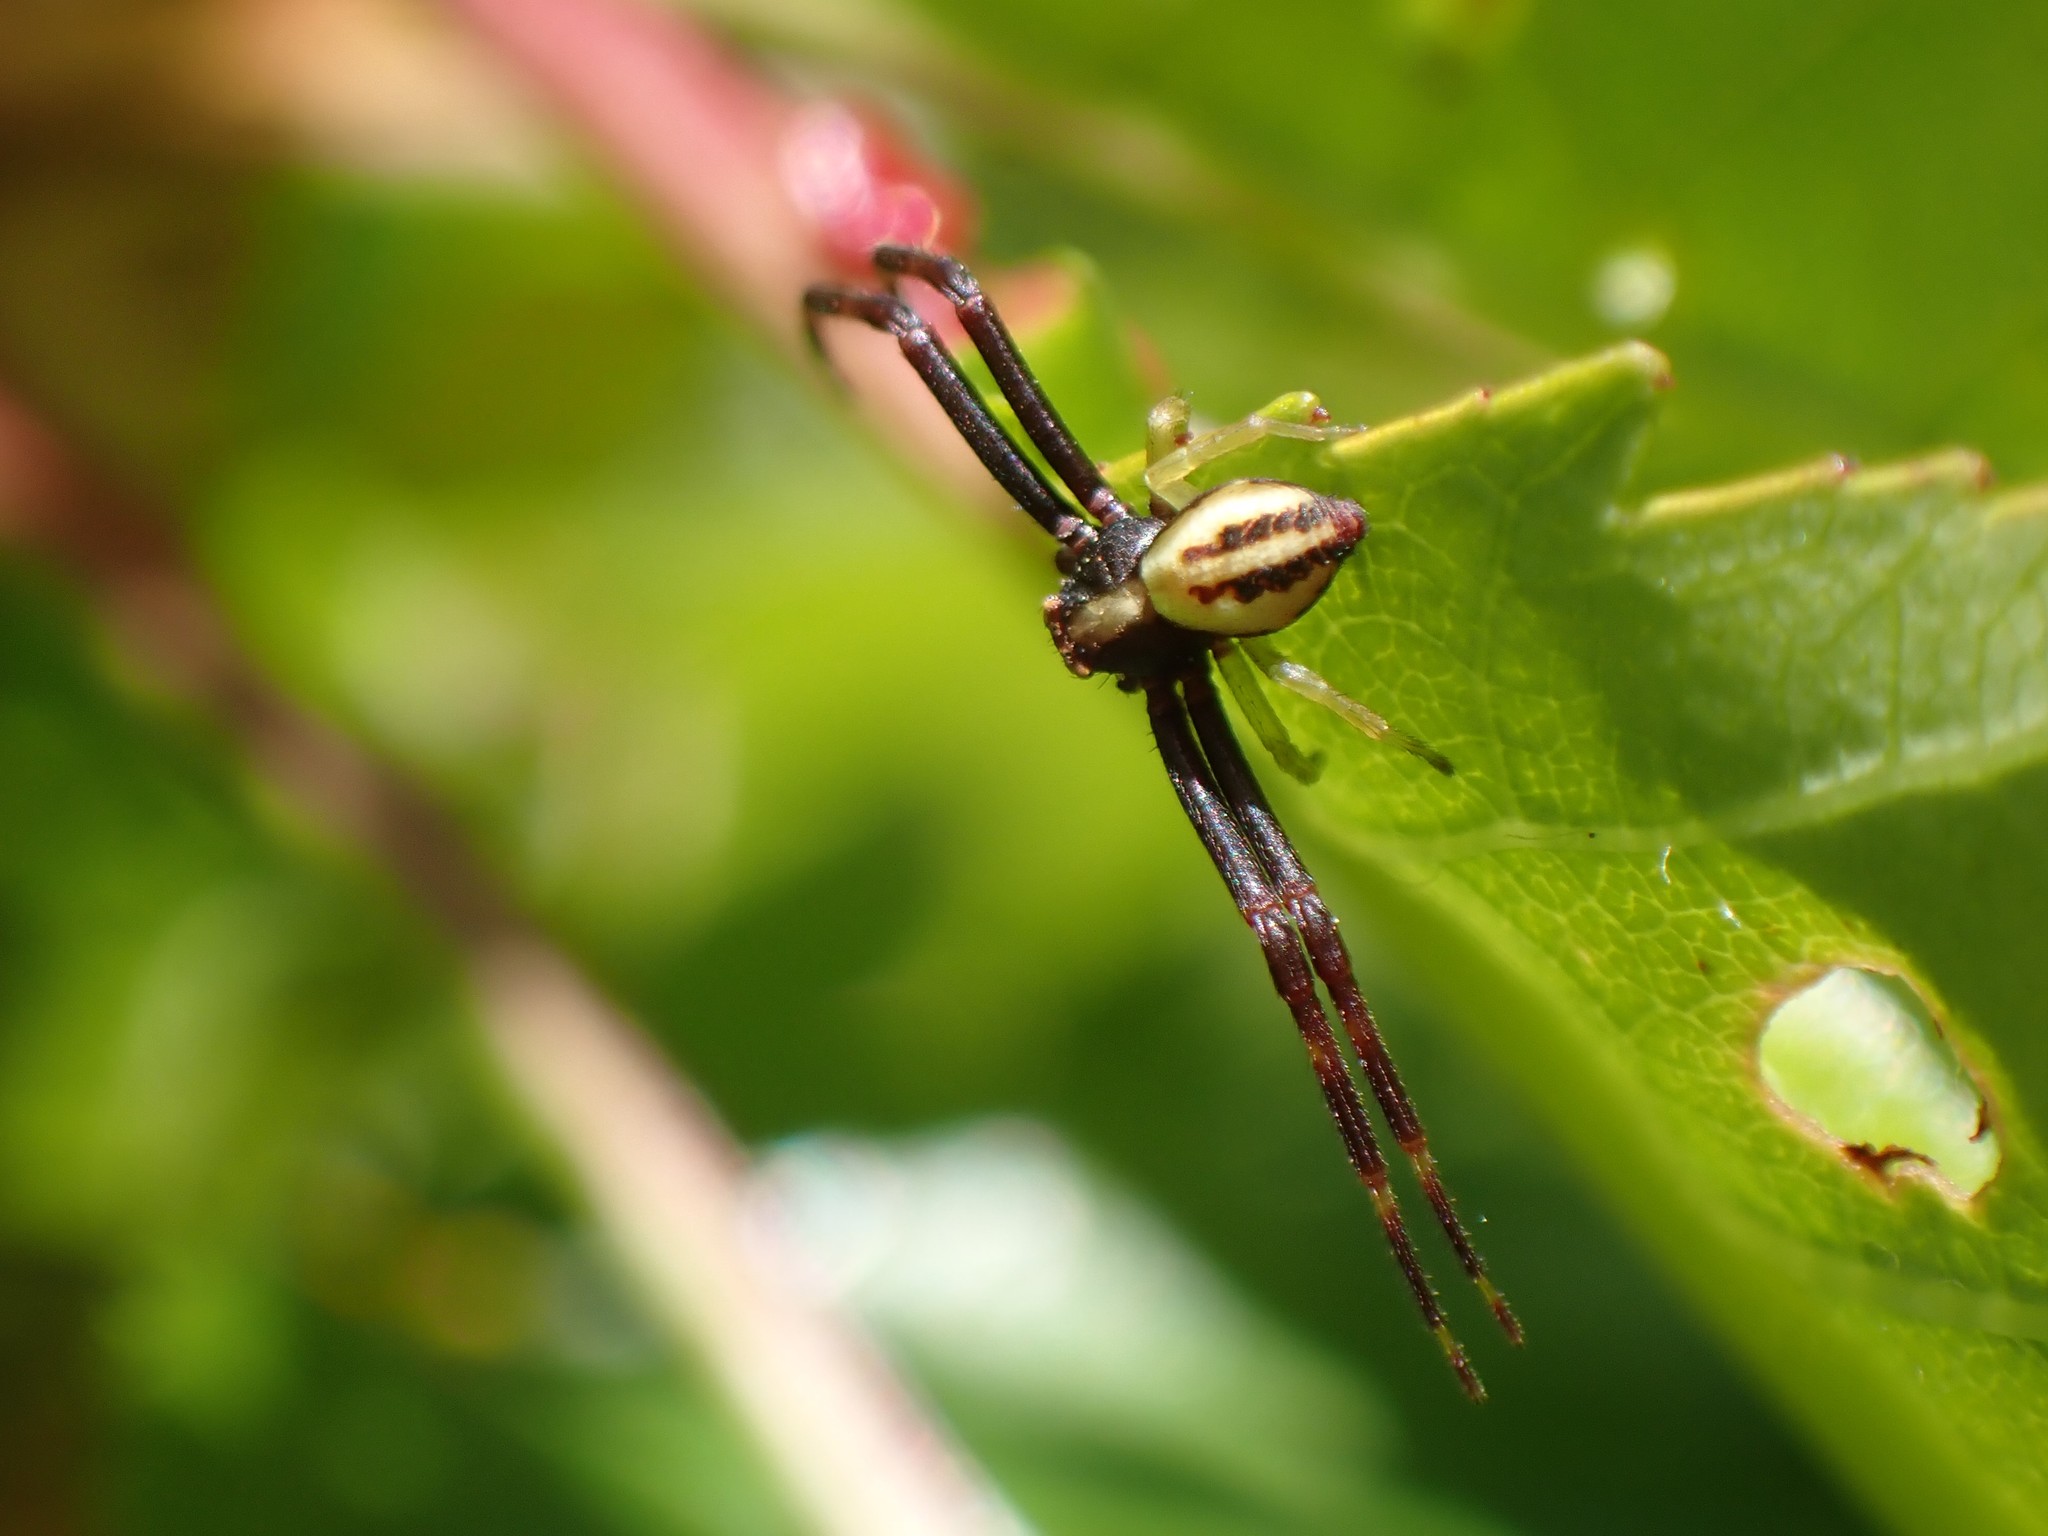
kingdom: Animalia
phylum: Arthropoda
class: Arachnida
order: Araneae
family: Thomisidae
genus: Misumena
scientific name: Misumena vatia
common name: Goldenrod crab spider
